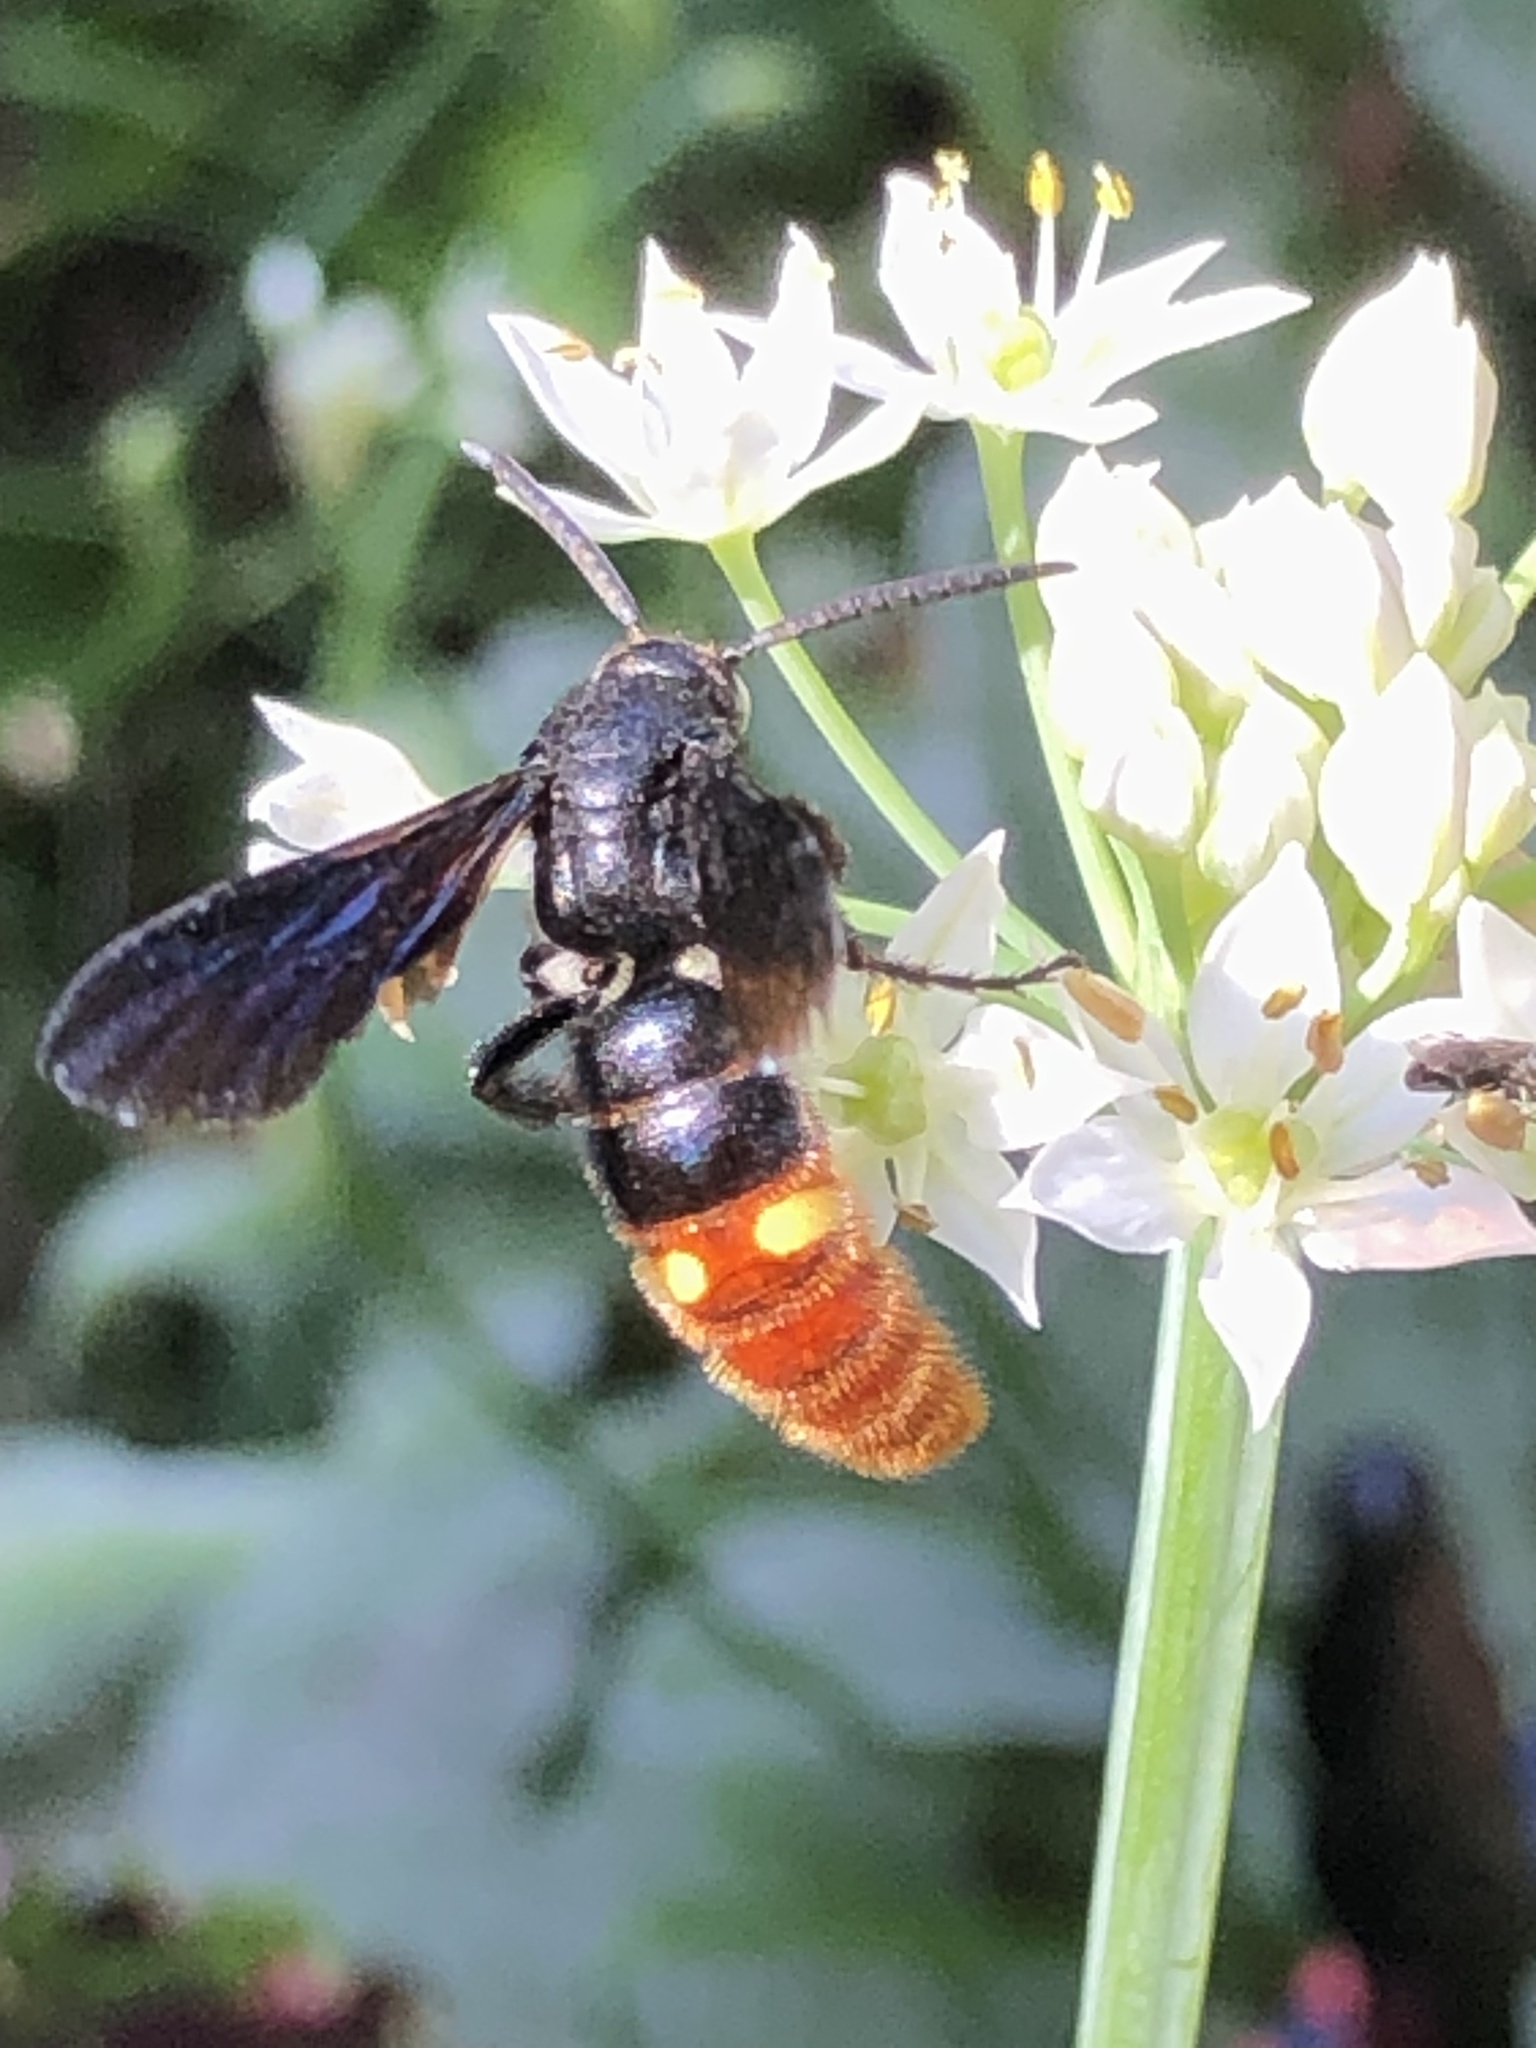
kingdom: Animalia
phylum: Arthropoda
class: Insecta
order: Hymenoptera
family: Scoliidae
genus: Scolia
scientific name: Scolia dubia
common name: Blue-winged scoliid wasp
